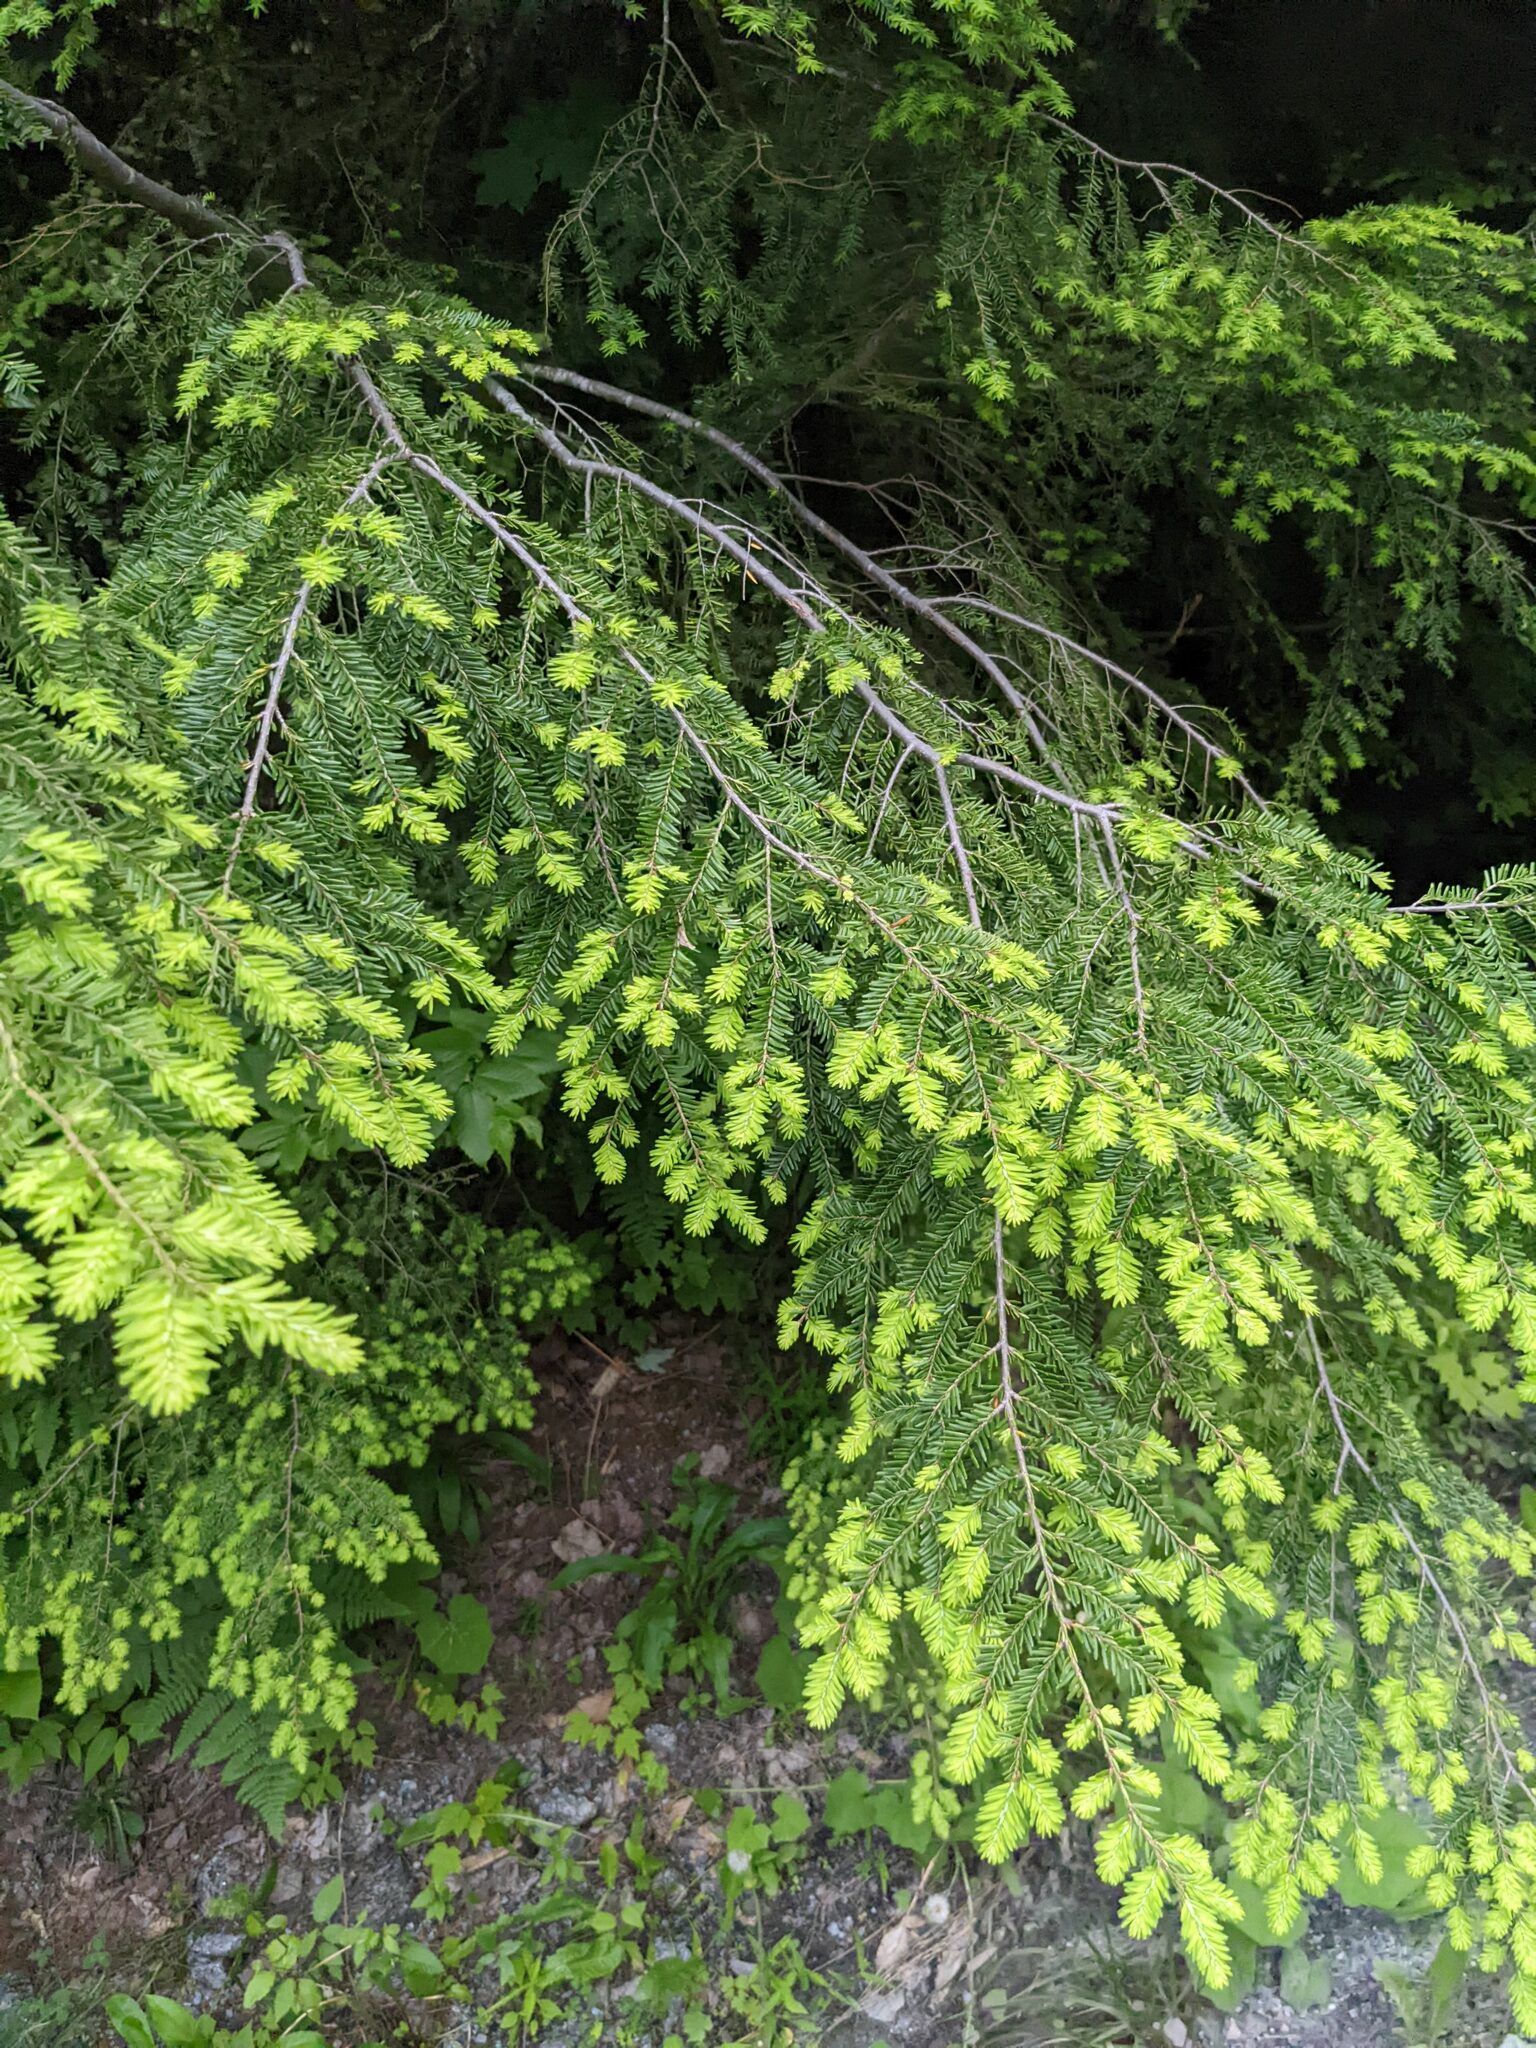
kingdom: Plantae
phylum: Tracheophyta
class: Pinopsida
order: Pinales
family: Pinaceae
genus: Tsuga
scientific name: Tsuga canadensis
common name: Eastern hemlock
